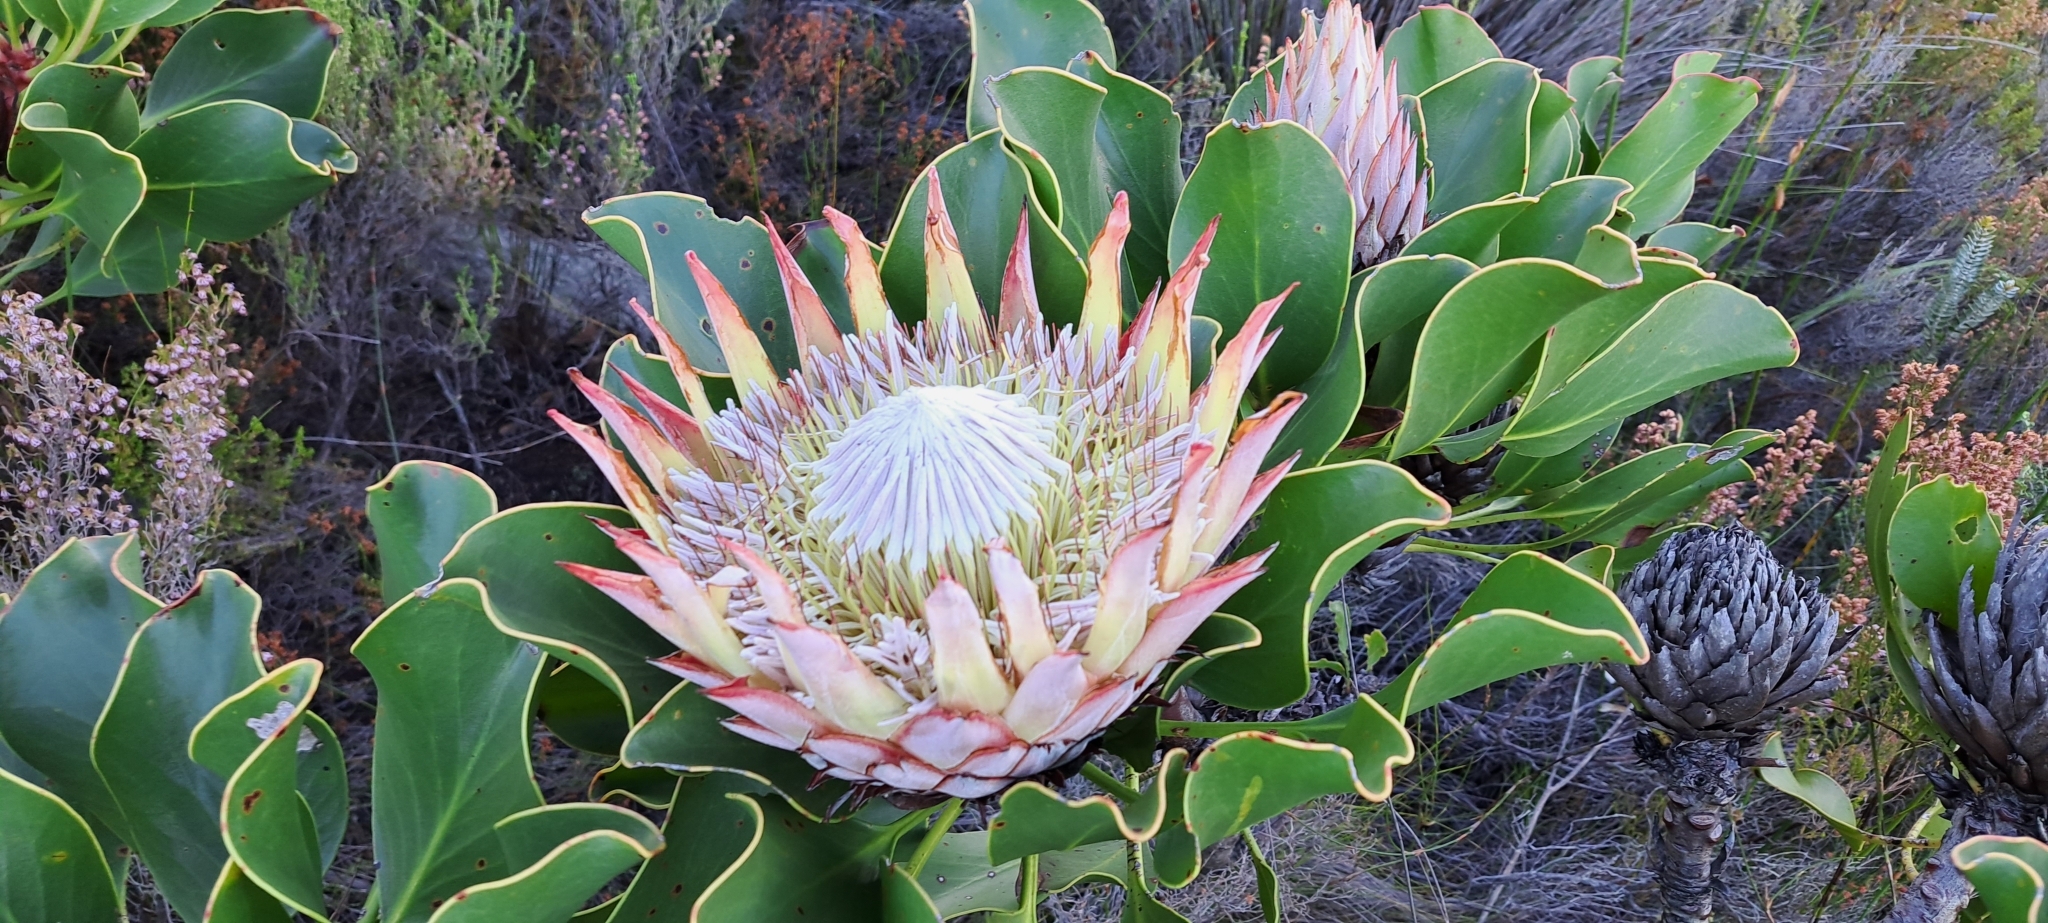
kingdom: Plantae
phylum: Tracheophyta
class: Magnoliopsida
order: Proteales
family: Proteaceae
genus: Protea
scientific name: Protea cynaroides
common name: King protea
